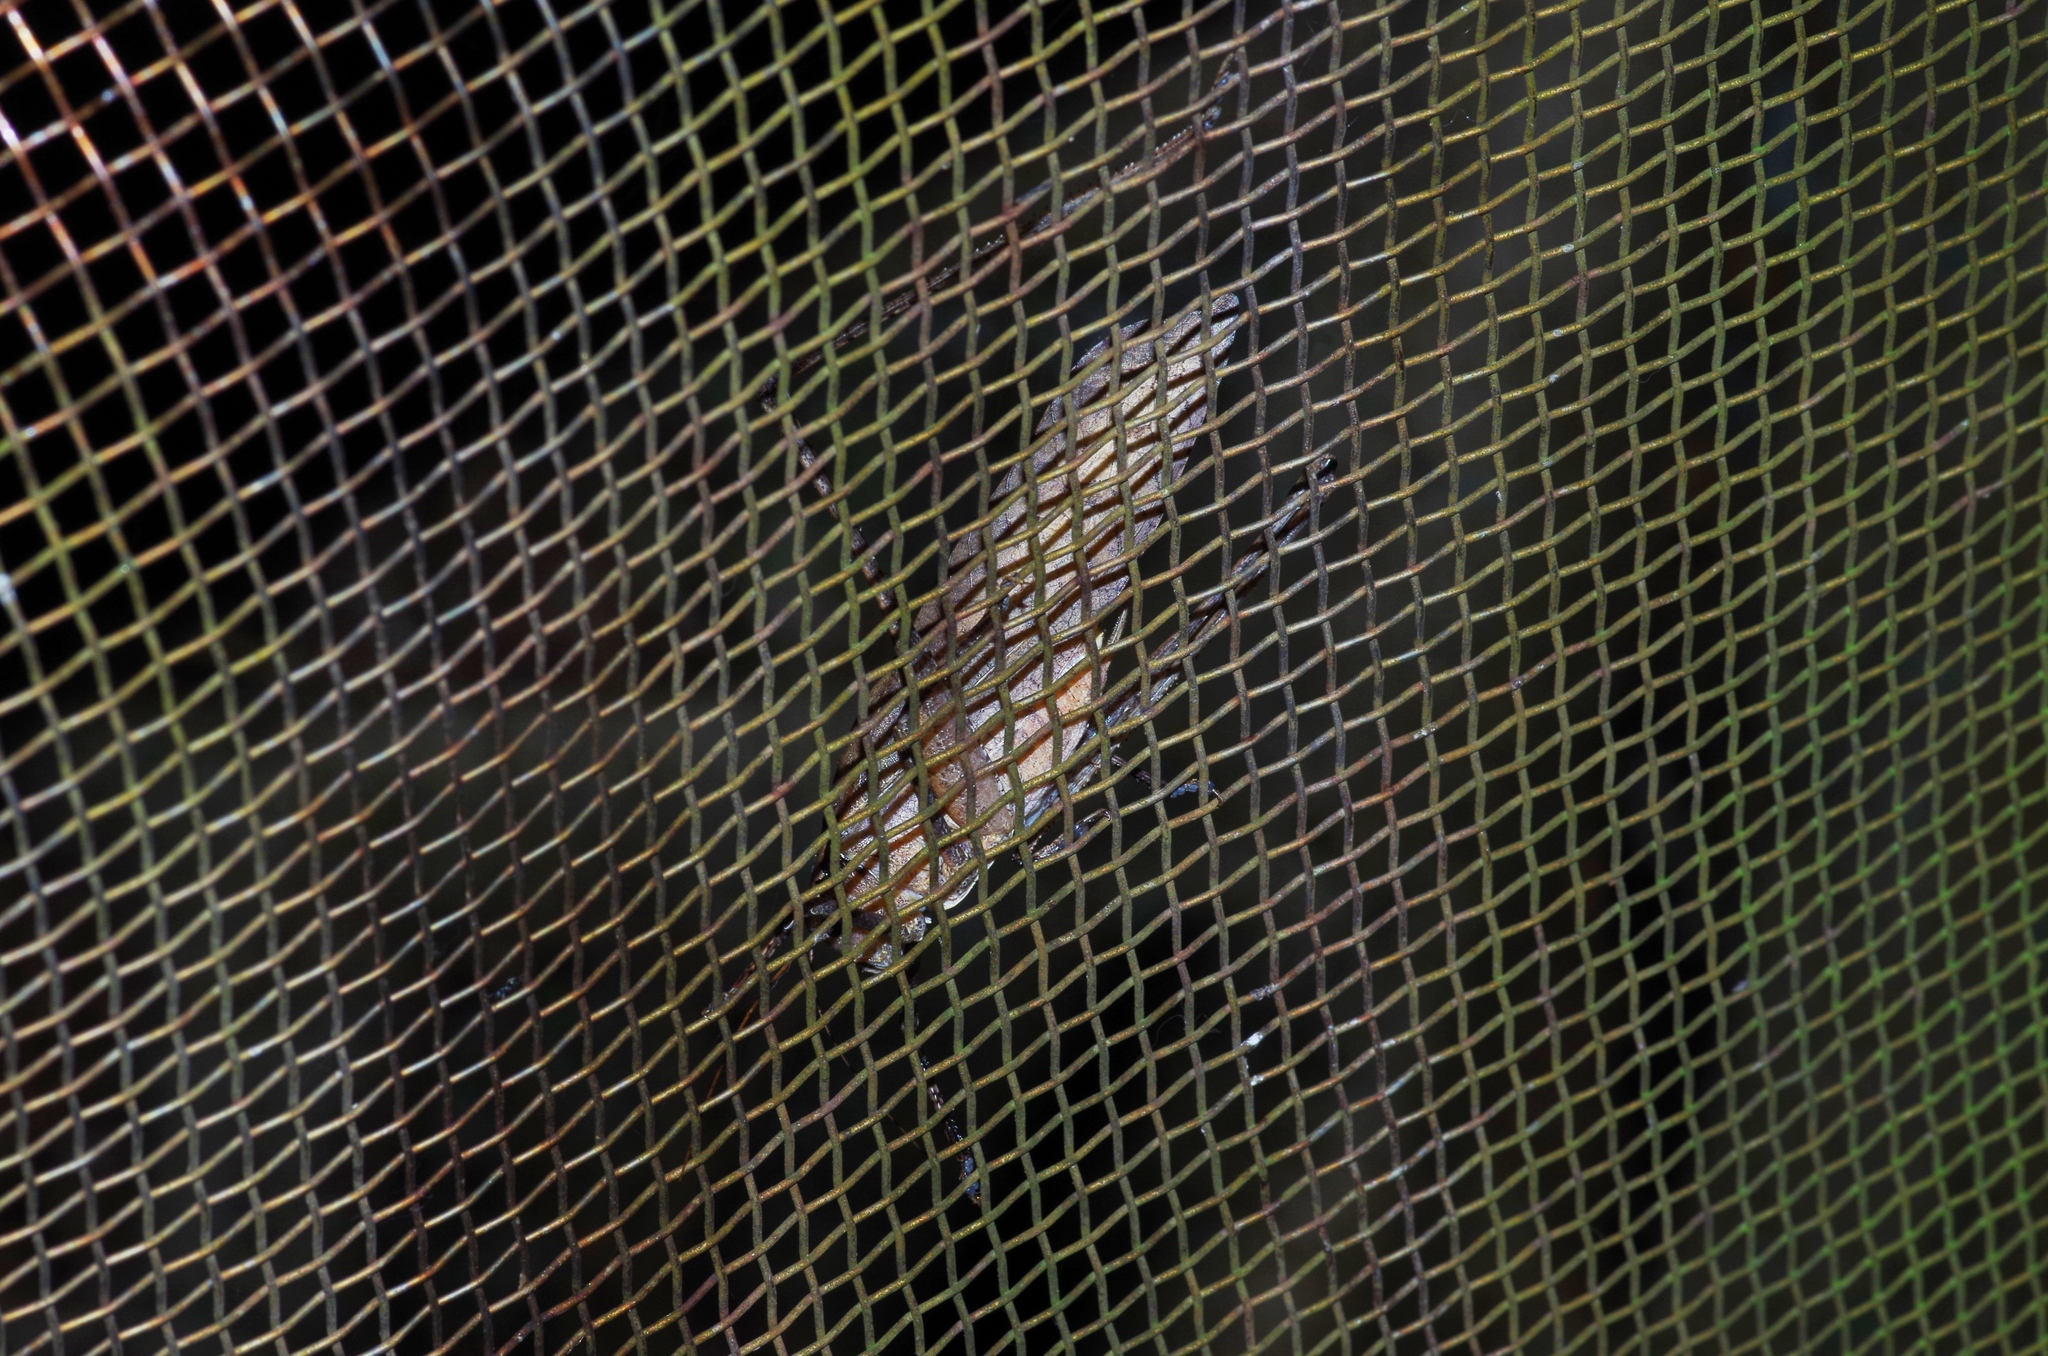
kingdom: Animalia
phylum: Arthropoda
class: Insecta
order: Orthoptera
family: Tettigoniidae
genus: Mecopoda
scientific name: Mecopoda elongata
